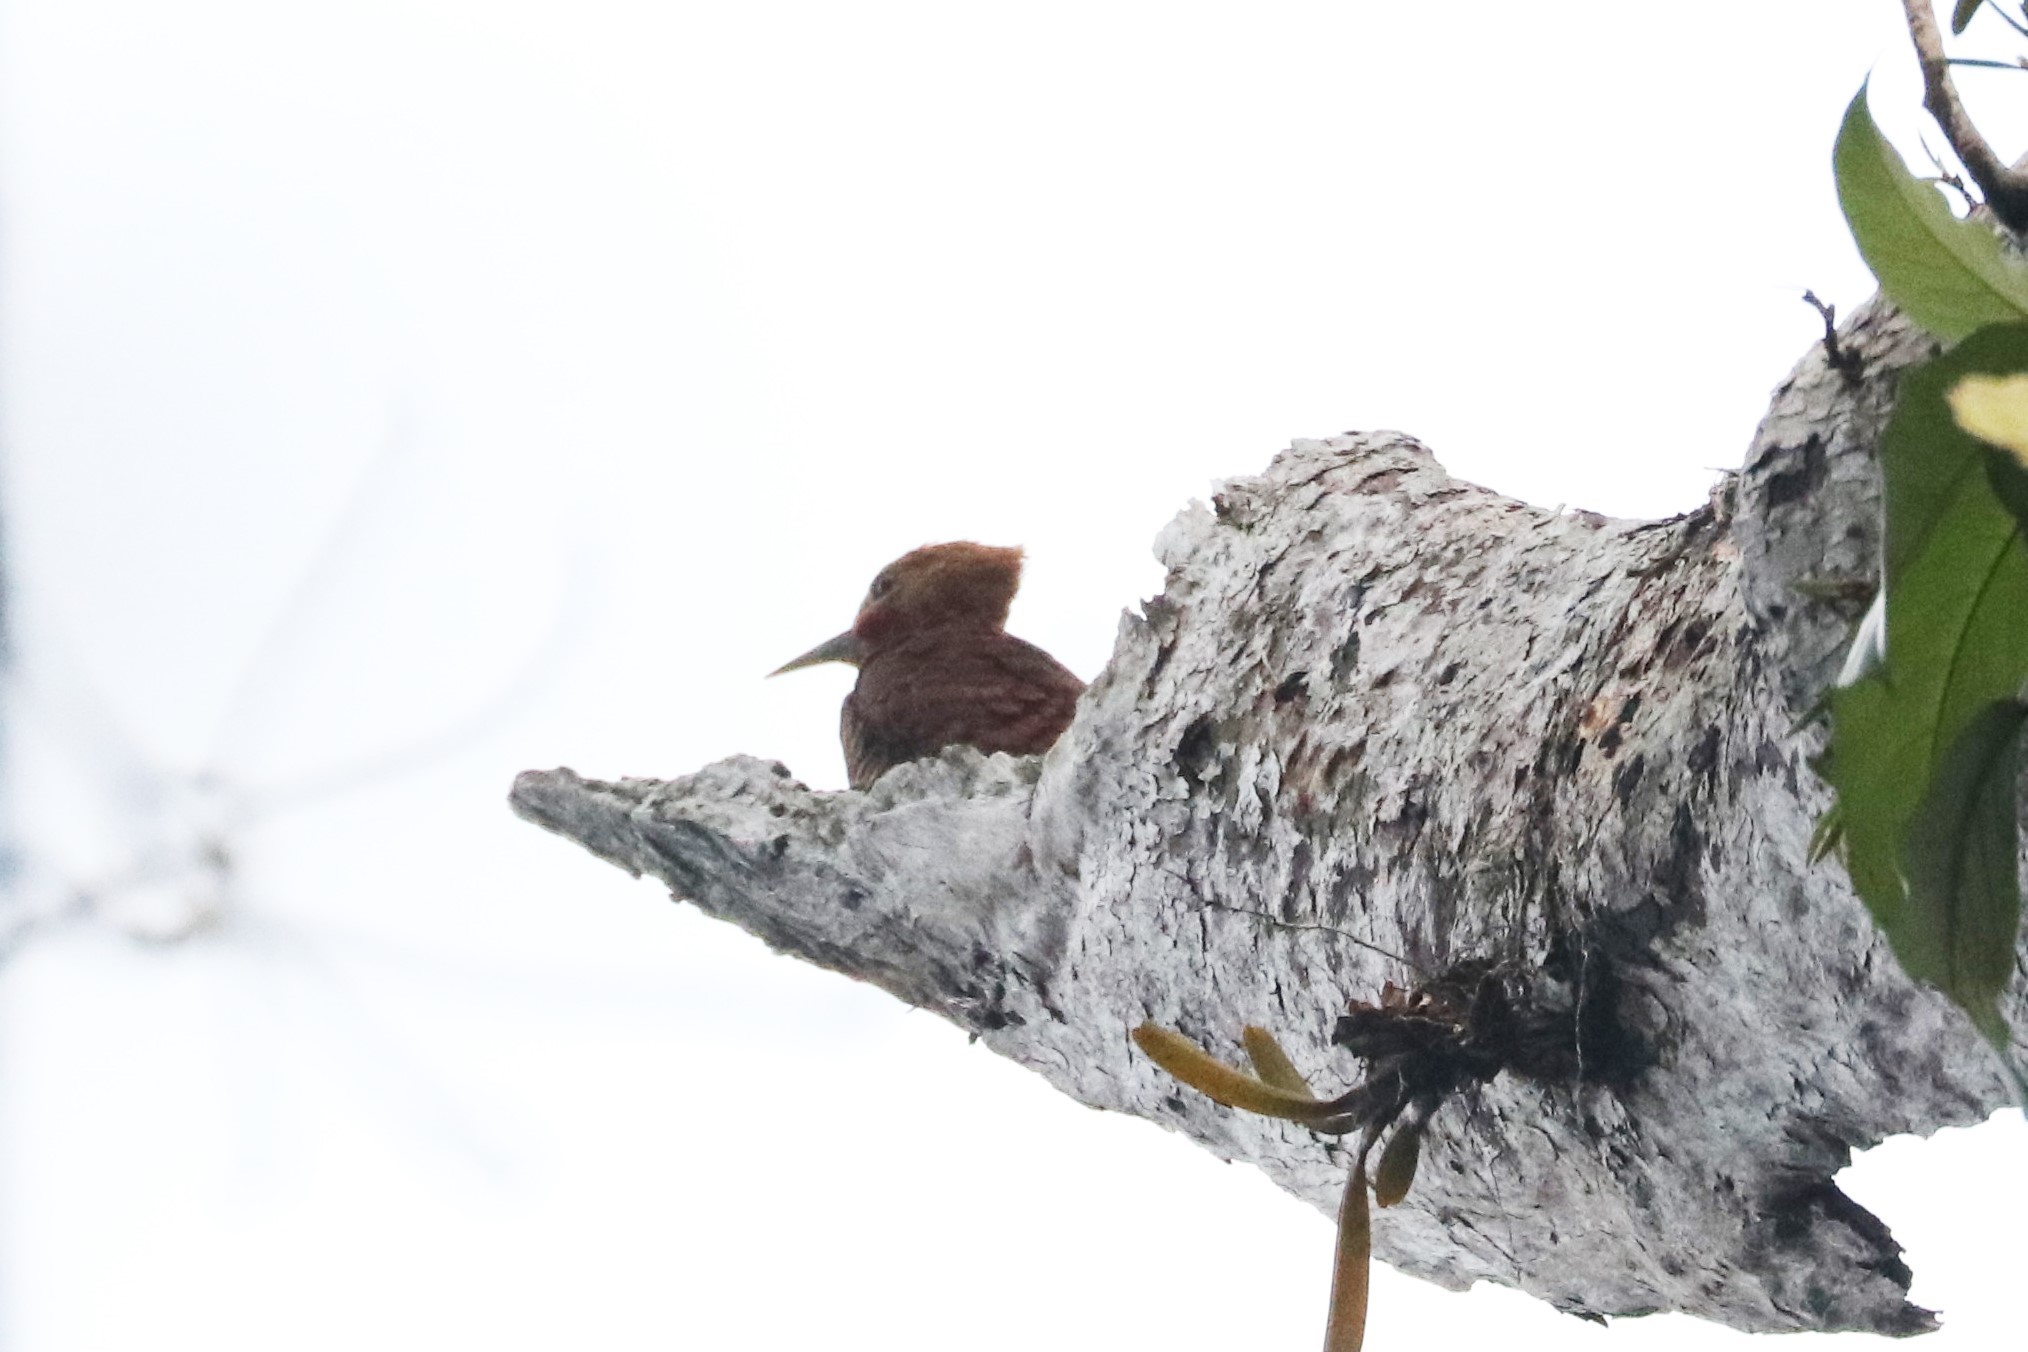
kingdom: Animalia
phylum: Chordata
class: Aves
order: Piciformes
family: Picidae
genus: Celeus
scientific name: Celeus torquatus
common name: Ringed woodpecker
